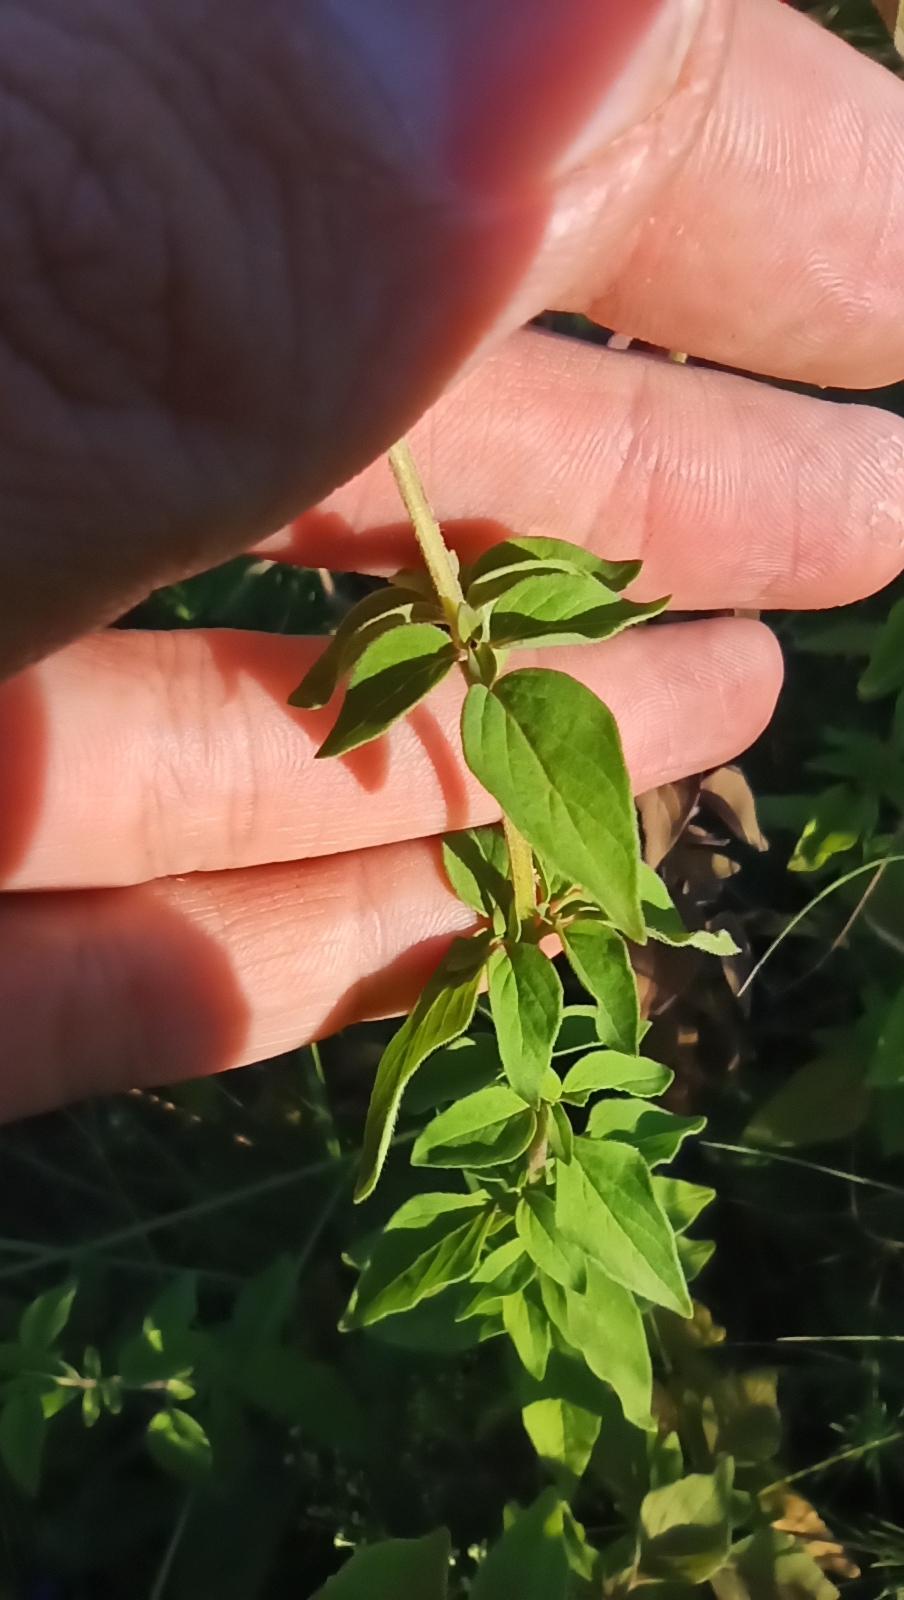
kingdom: Plantae
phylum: Tracheophyta
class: Magnoliopsida
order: Lamiales
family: Lamiaceae
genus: Origanum
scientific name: Origanum vulgare
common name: Wild marjoram
